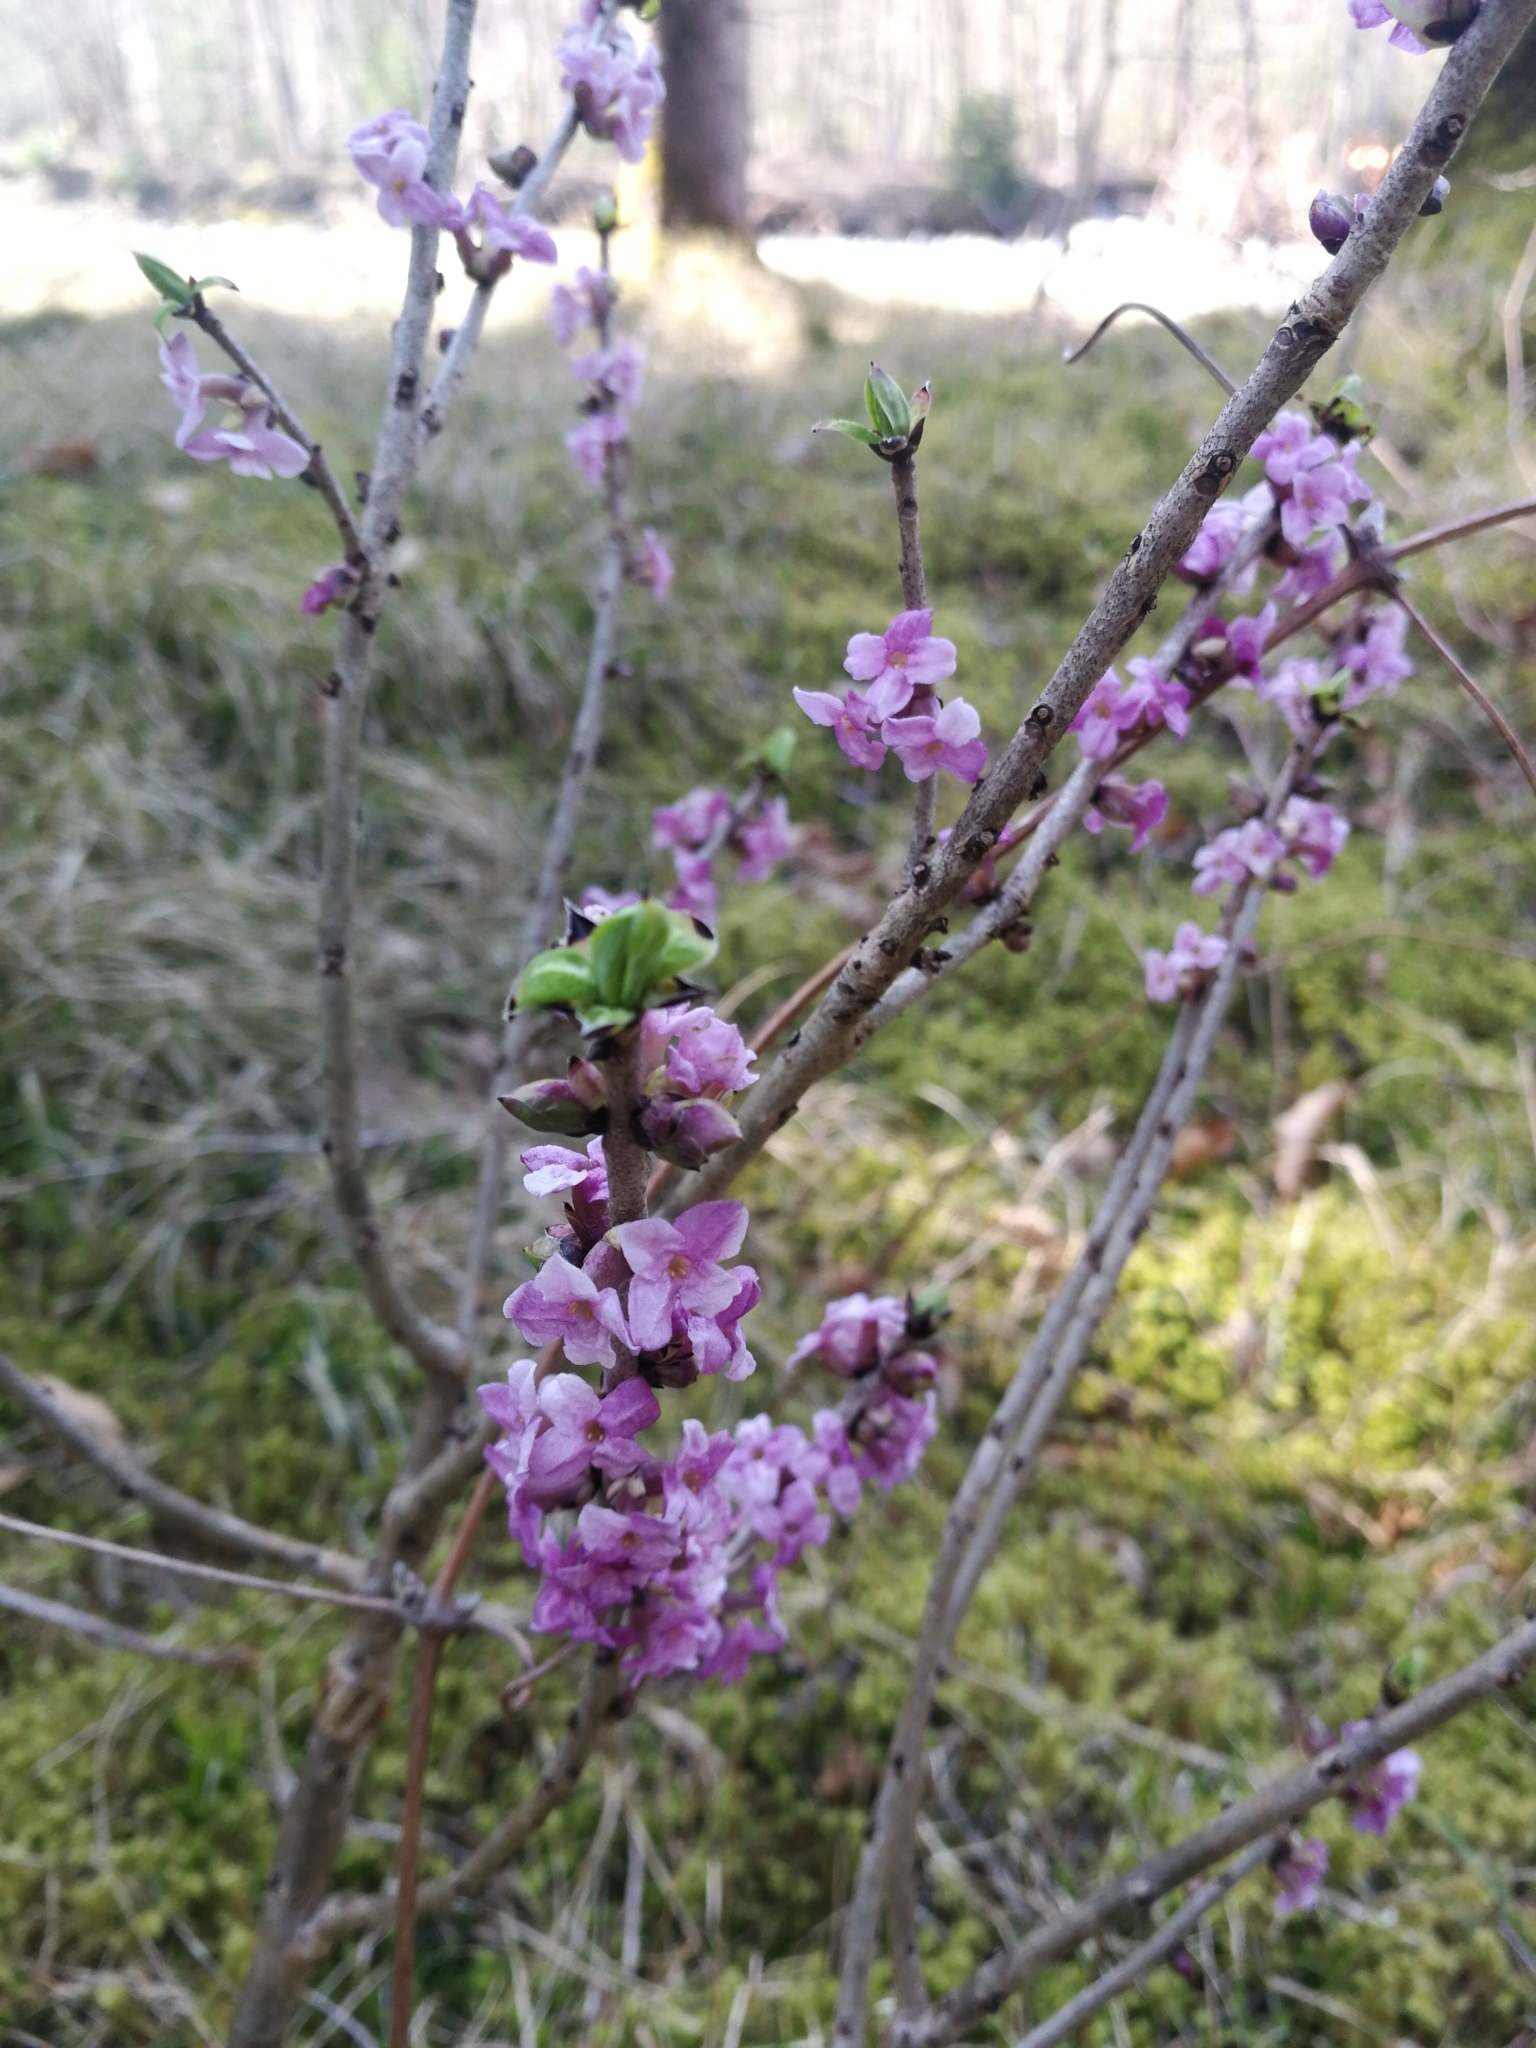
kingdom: Plantae
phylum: Tracheophyta
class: Magnoliopsida
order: Malvales
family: Thymelaeaceae
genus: Daphne
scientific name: Daphne mezereum
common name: Mezereon
